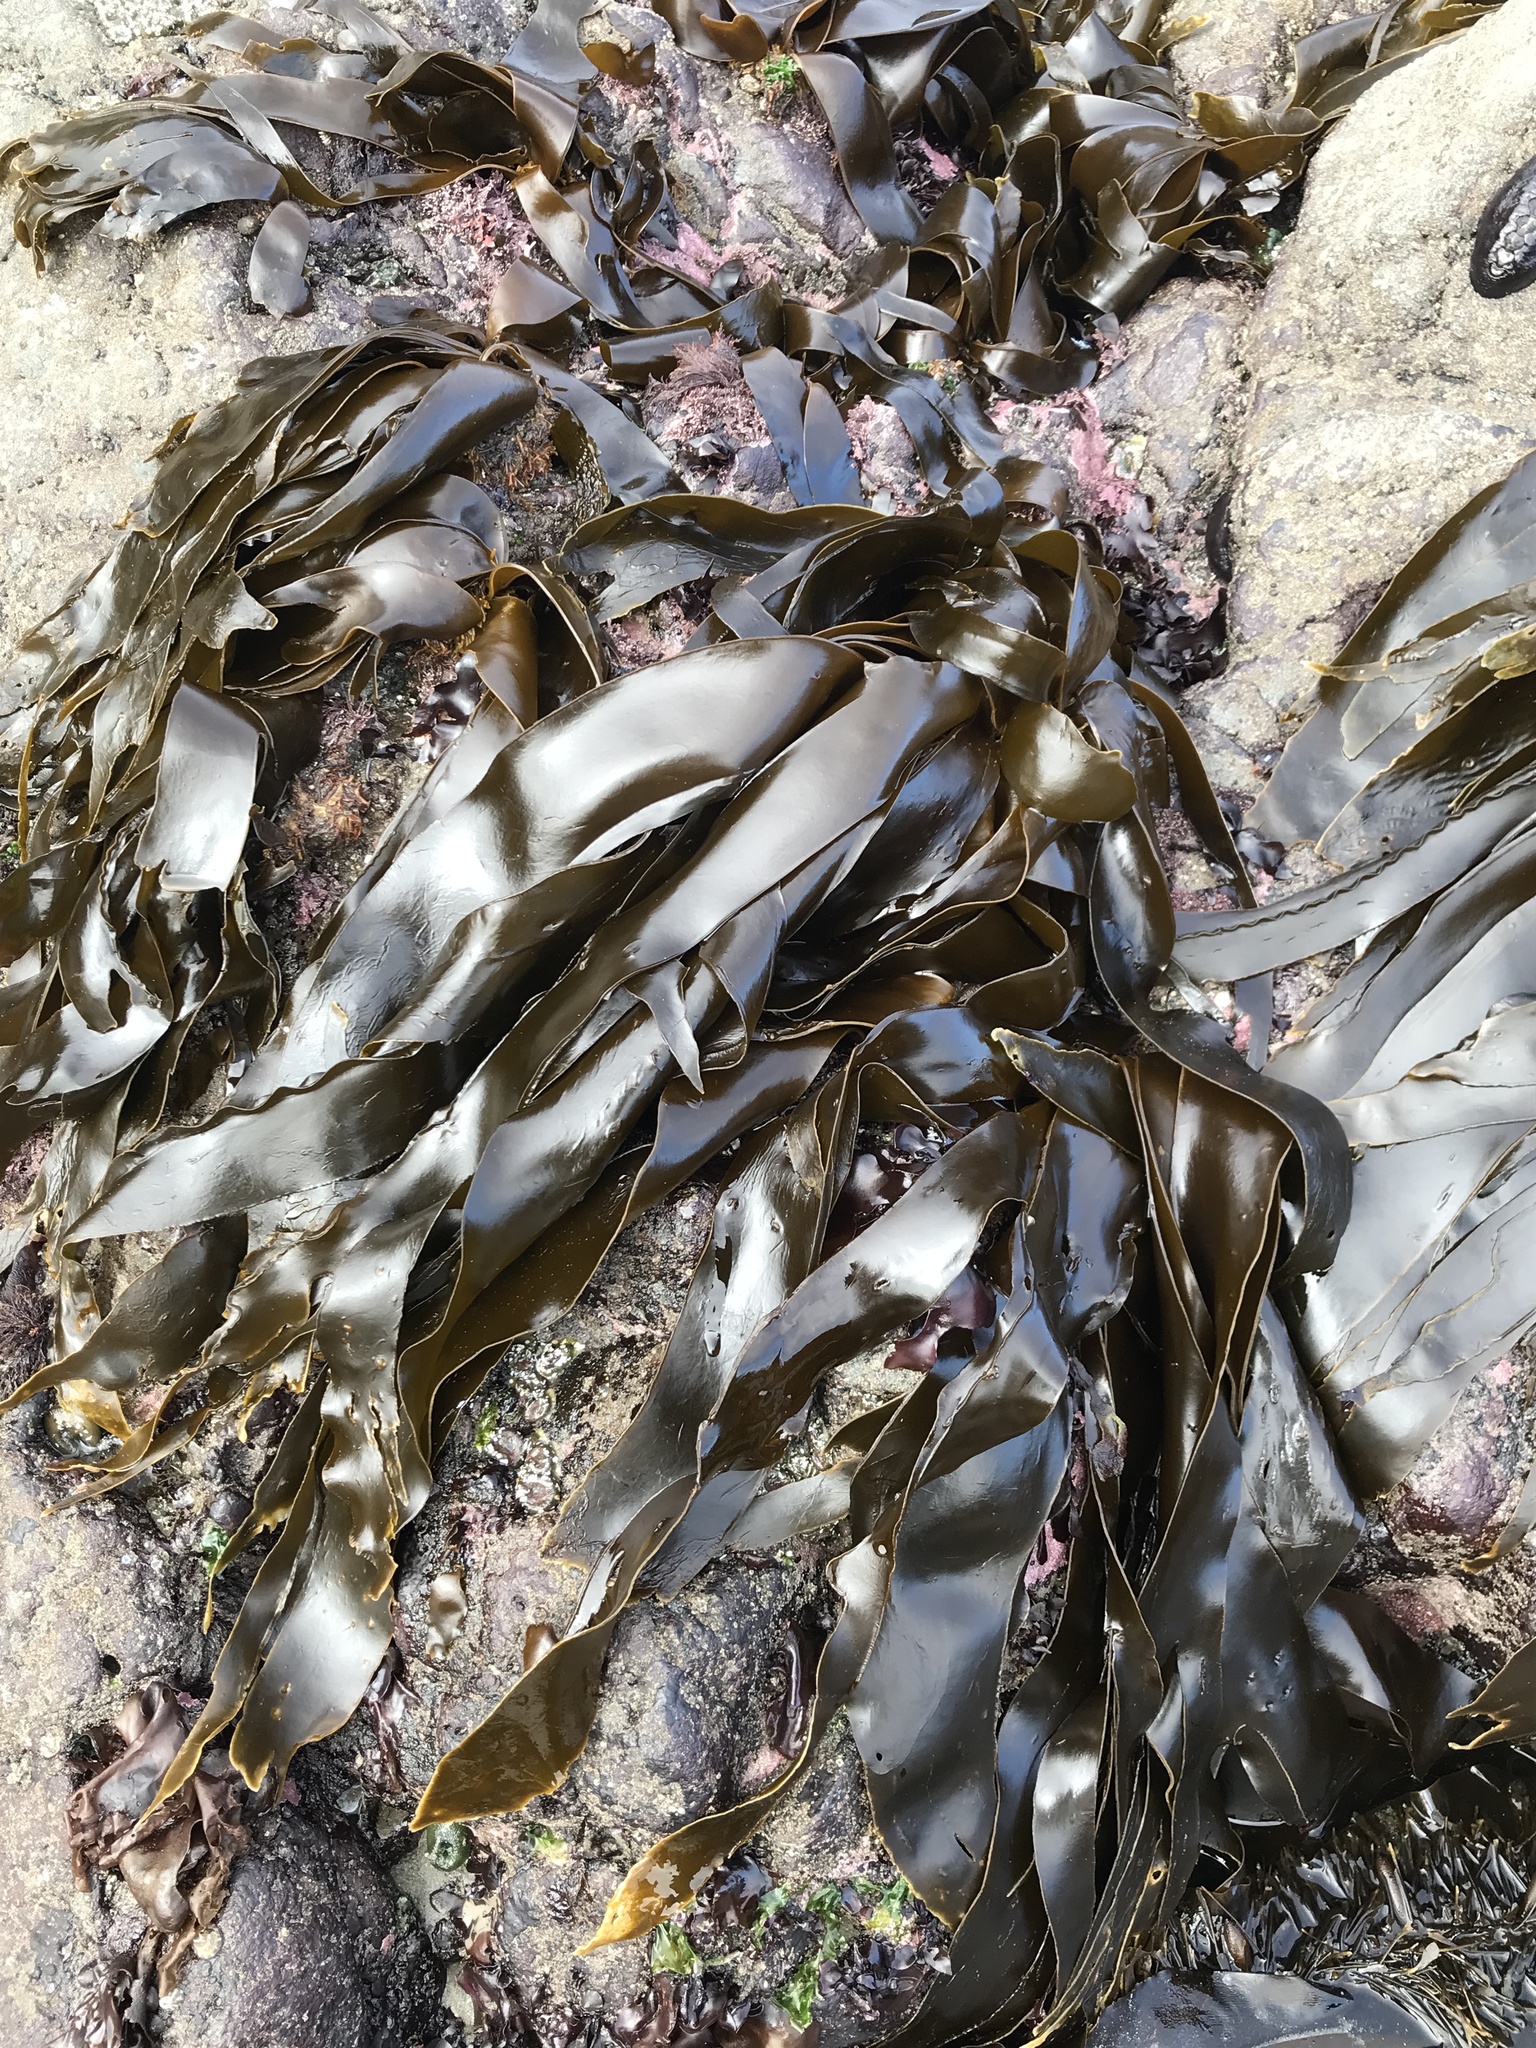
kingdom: Chromista
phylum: Ochrophyta
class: Phaeophyceae
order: Laminariales
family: Laminariaceae
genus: Hedophyllum
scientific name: Hedophyllum sessile
